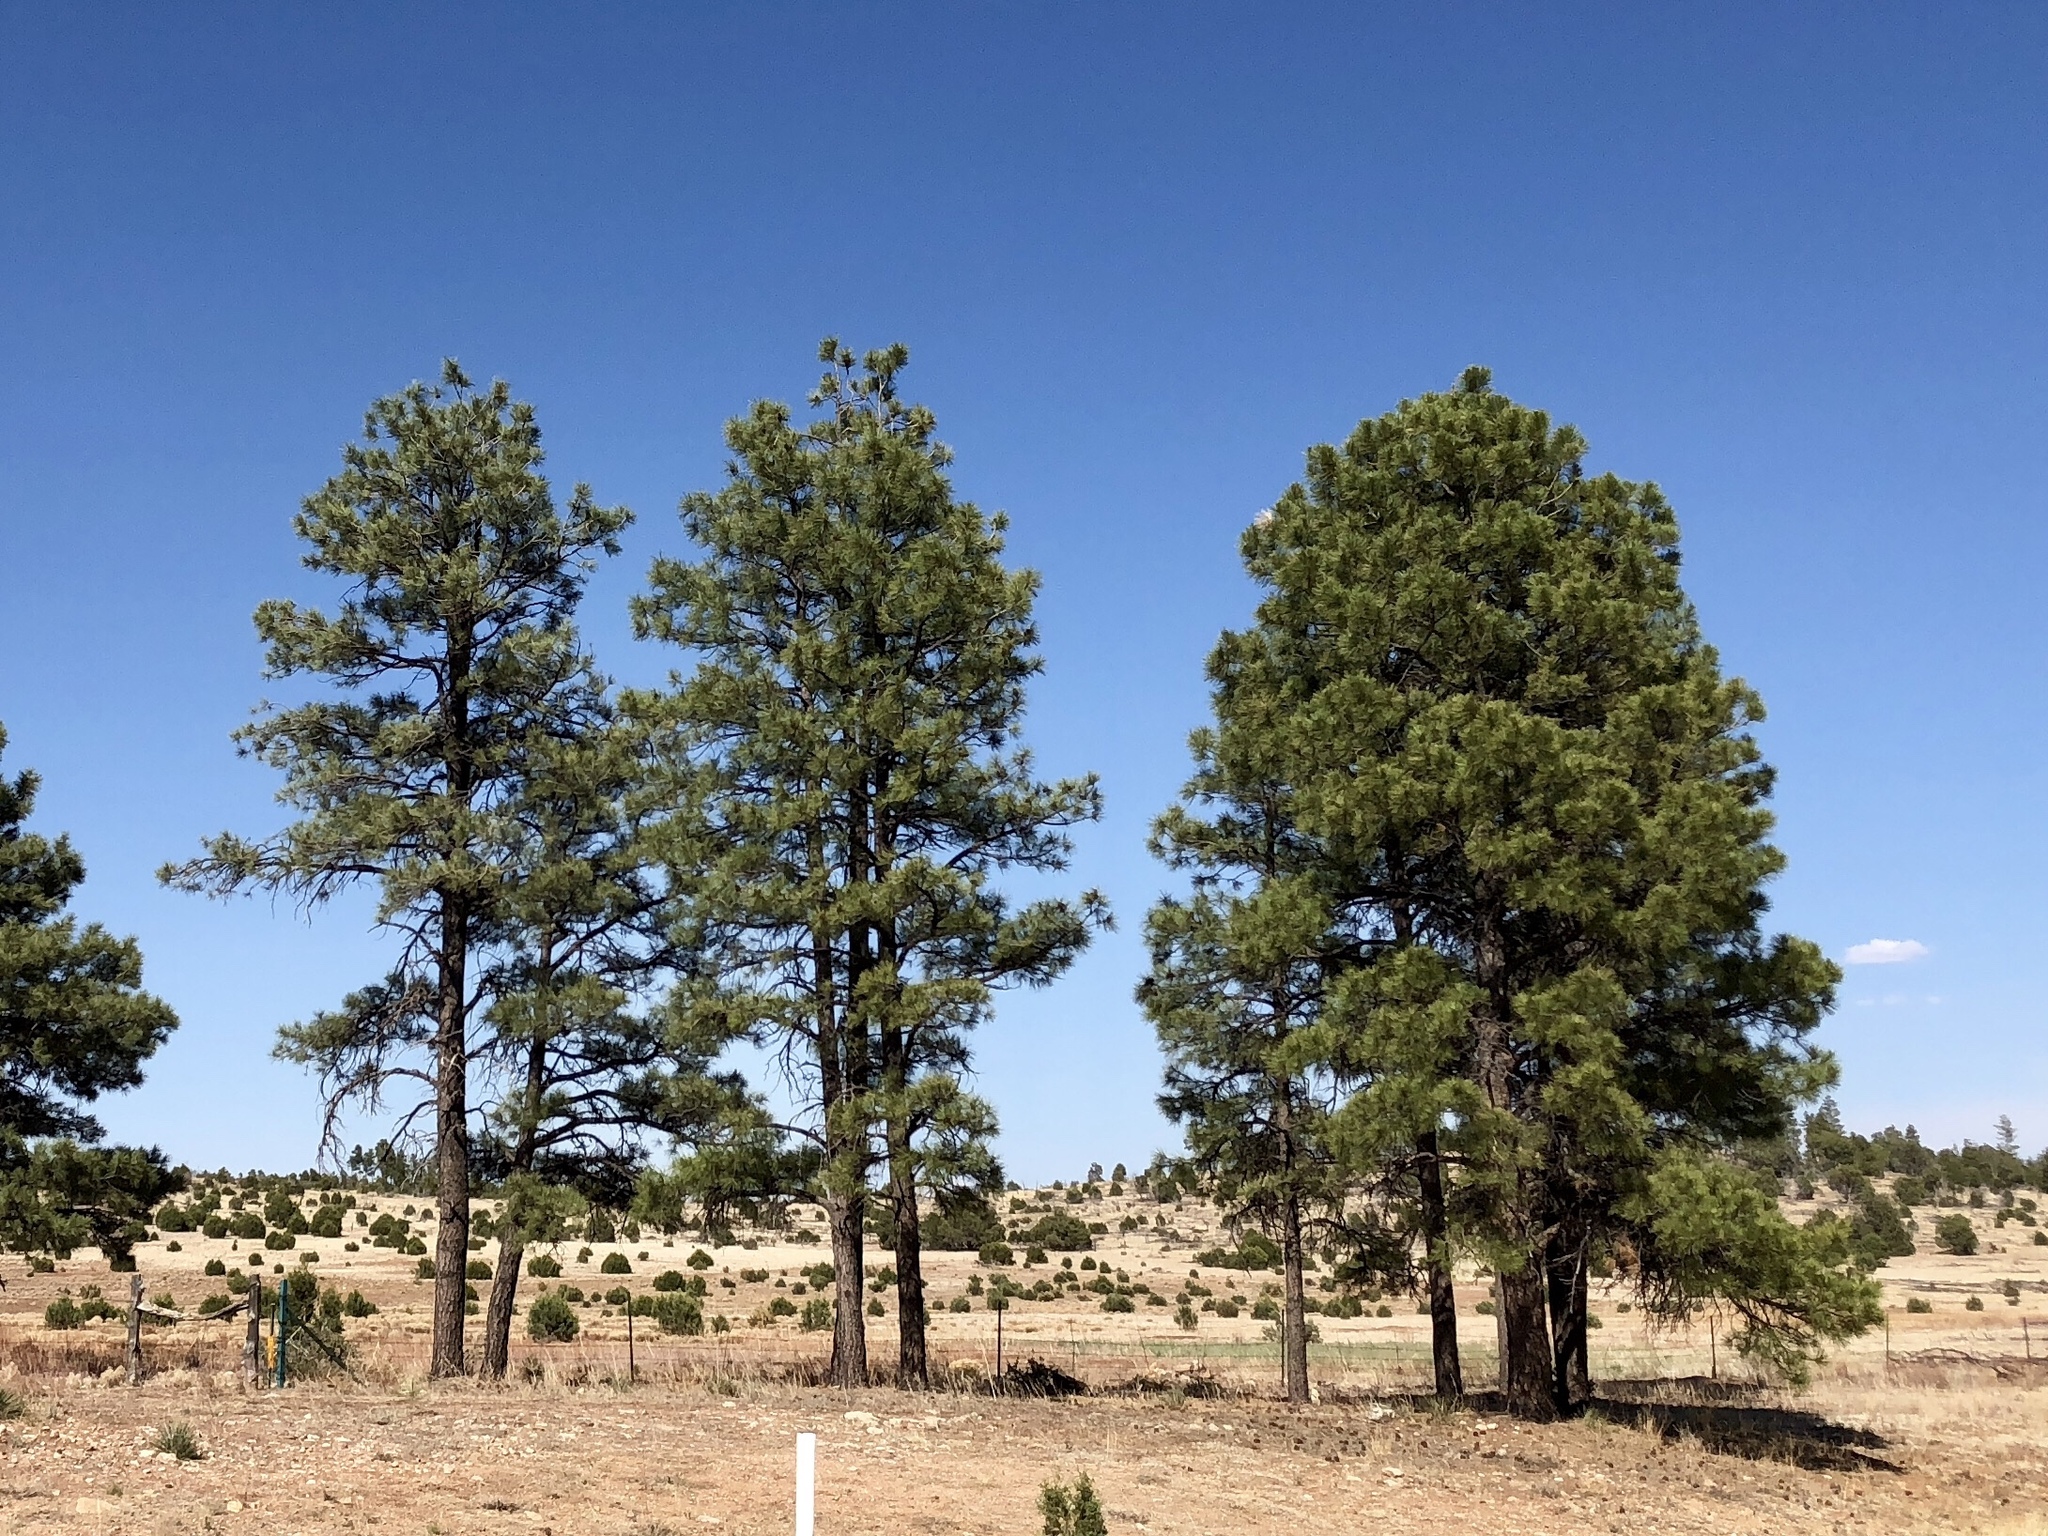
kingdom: Plantae
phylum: Tracheophyta
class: Pinopsida
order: Pinales
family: Pinaceae
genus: Pinus
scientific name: Pinus ponderosa
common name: Western yellow-pine
